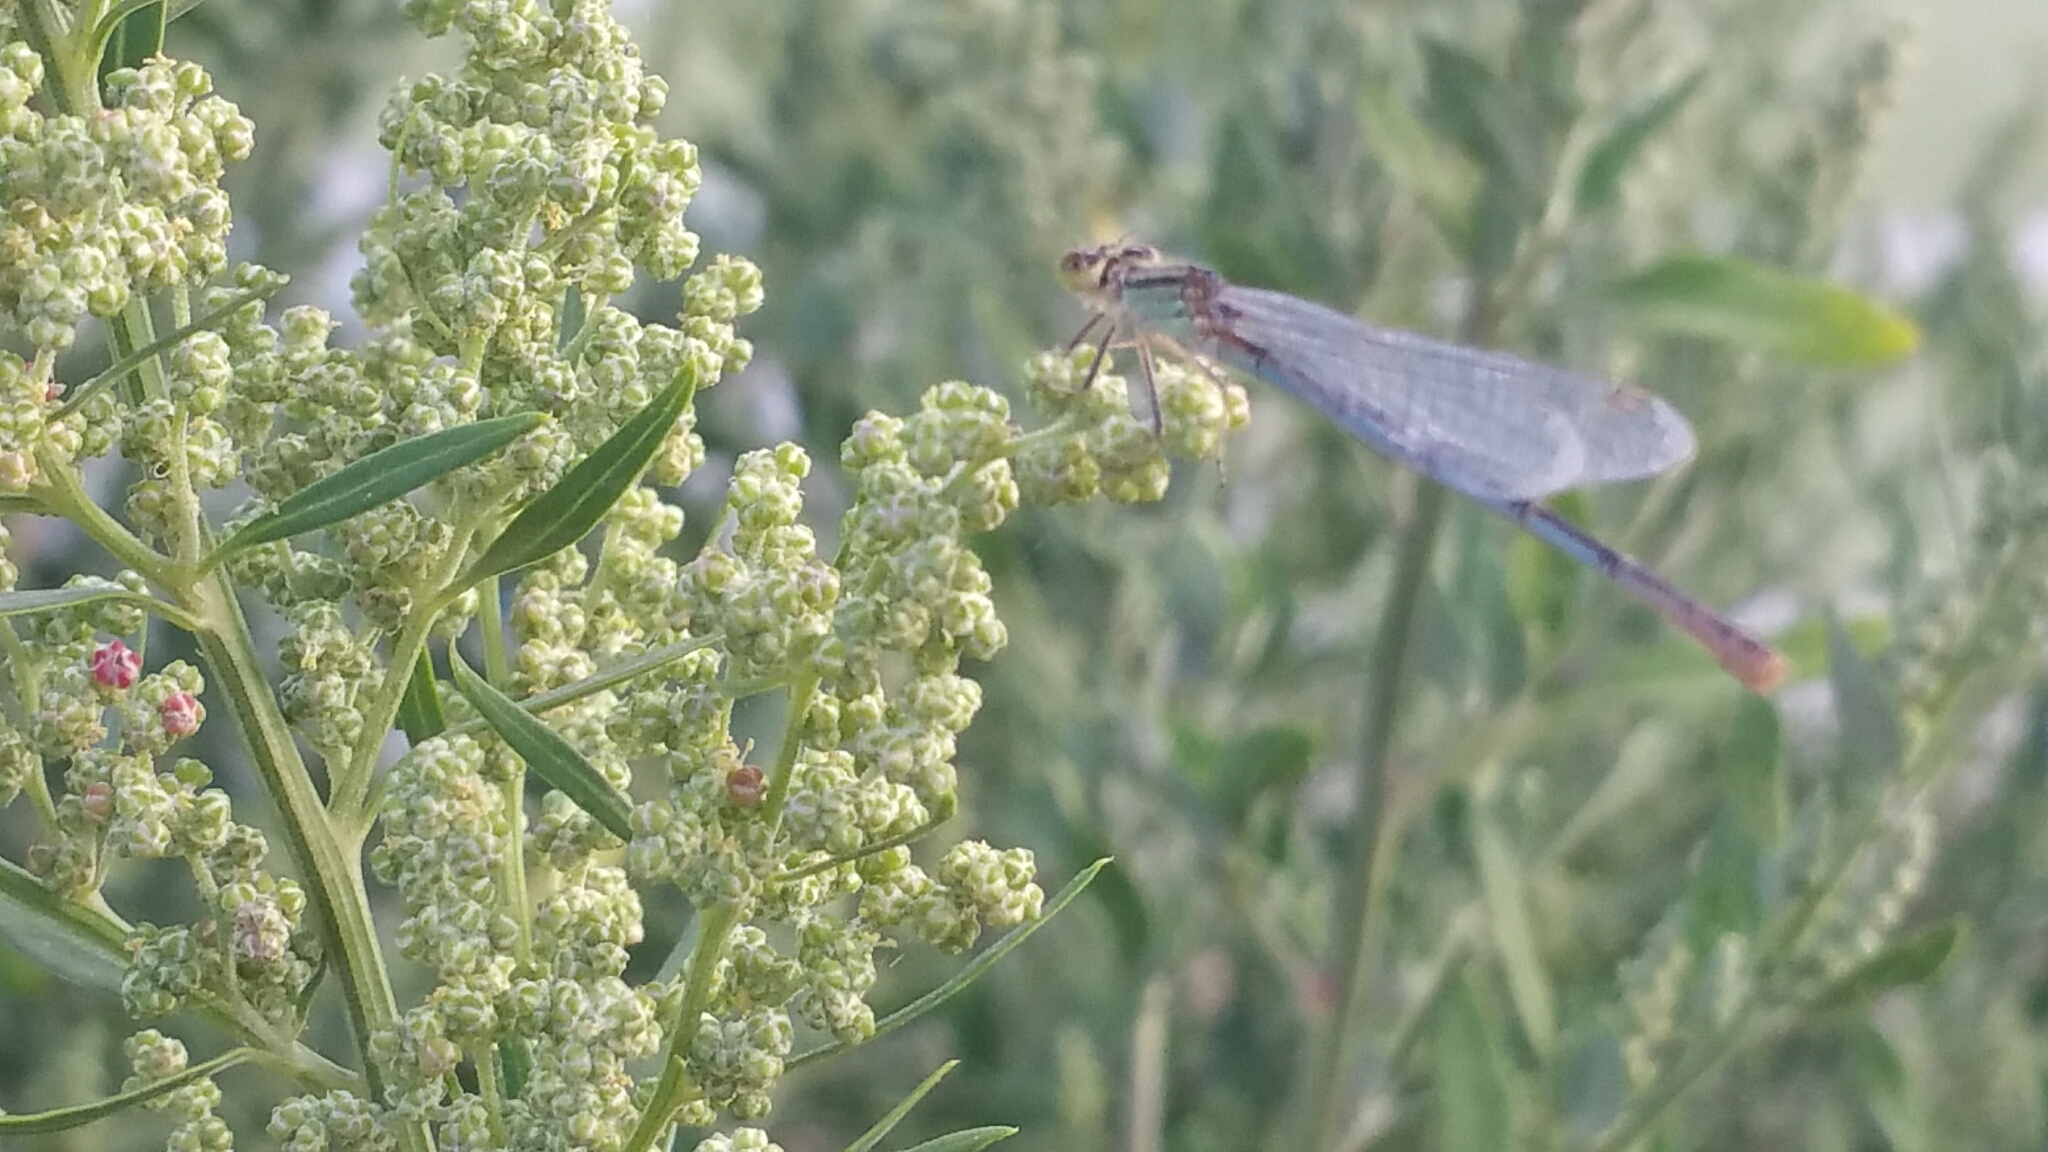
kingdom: Animalia
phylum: Arthropoda
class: Insecta
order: Odonata
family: Coenagrionidae
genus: Erythromma
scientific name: Erythromma lindenii
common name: Blue-eye
